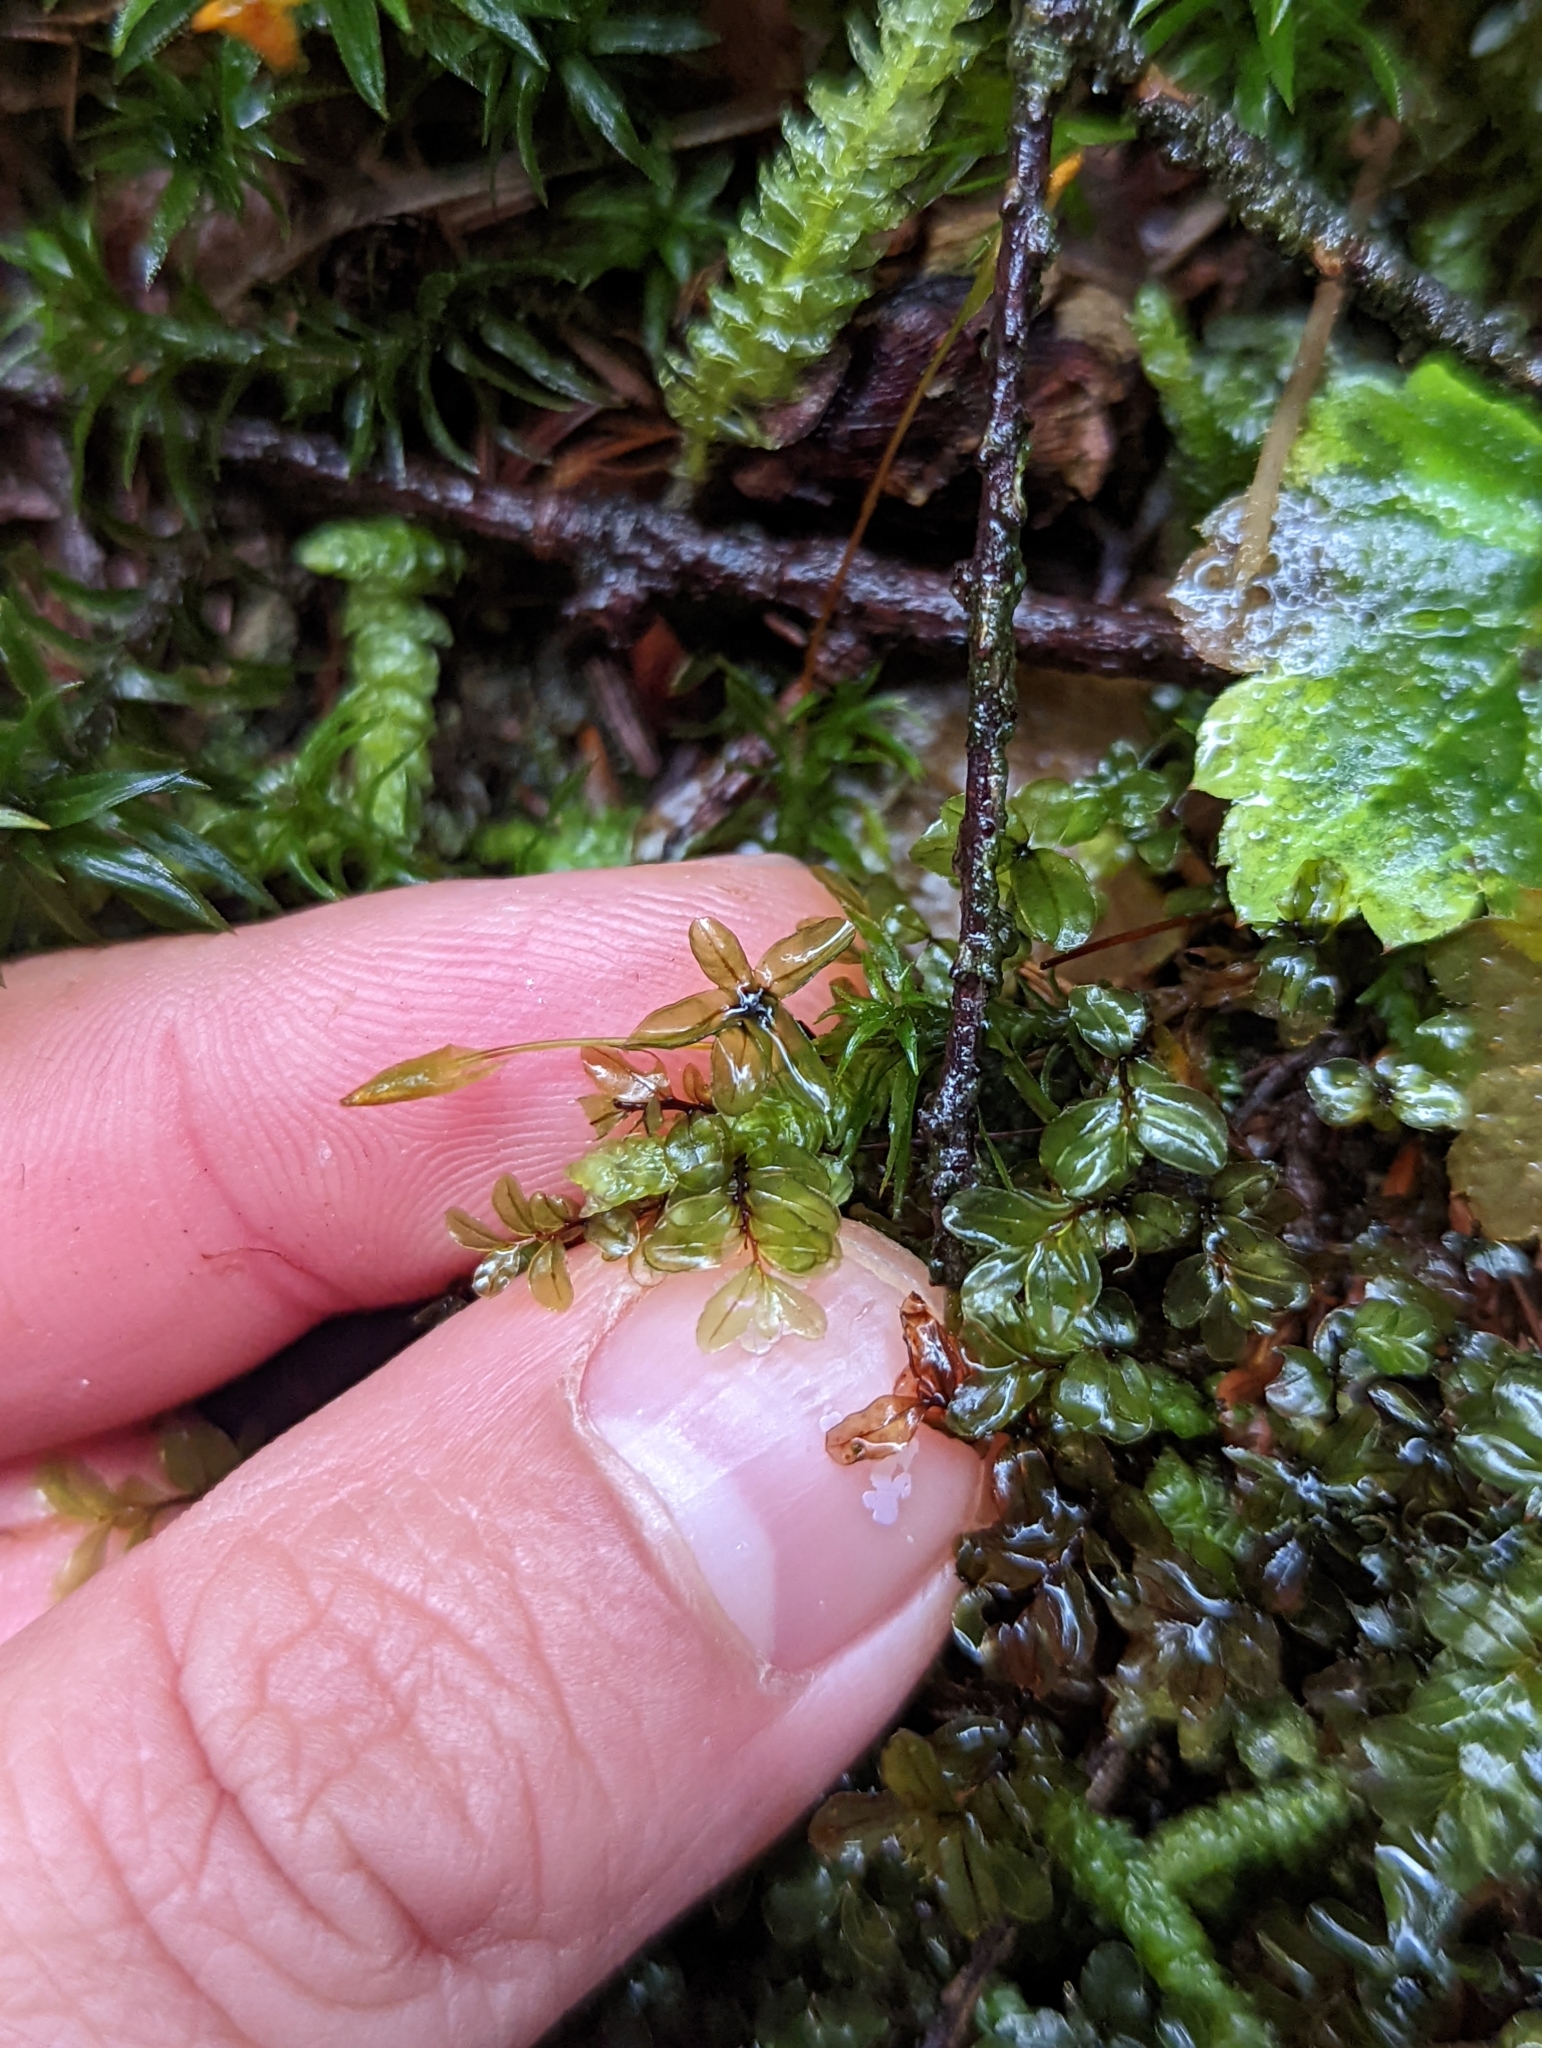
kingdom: Plantae
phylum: Bryophyta
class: Bryopsida
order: Bryales
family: Mniaceae
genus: Rhizomnium
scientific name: Rhizomnium glabrescens
